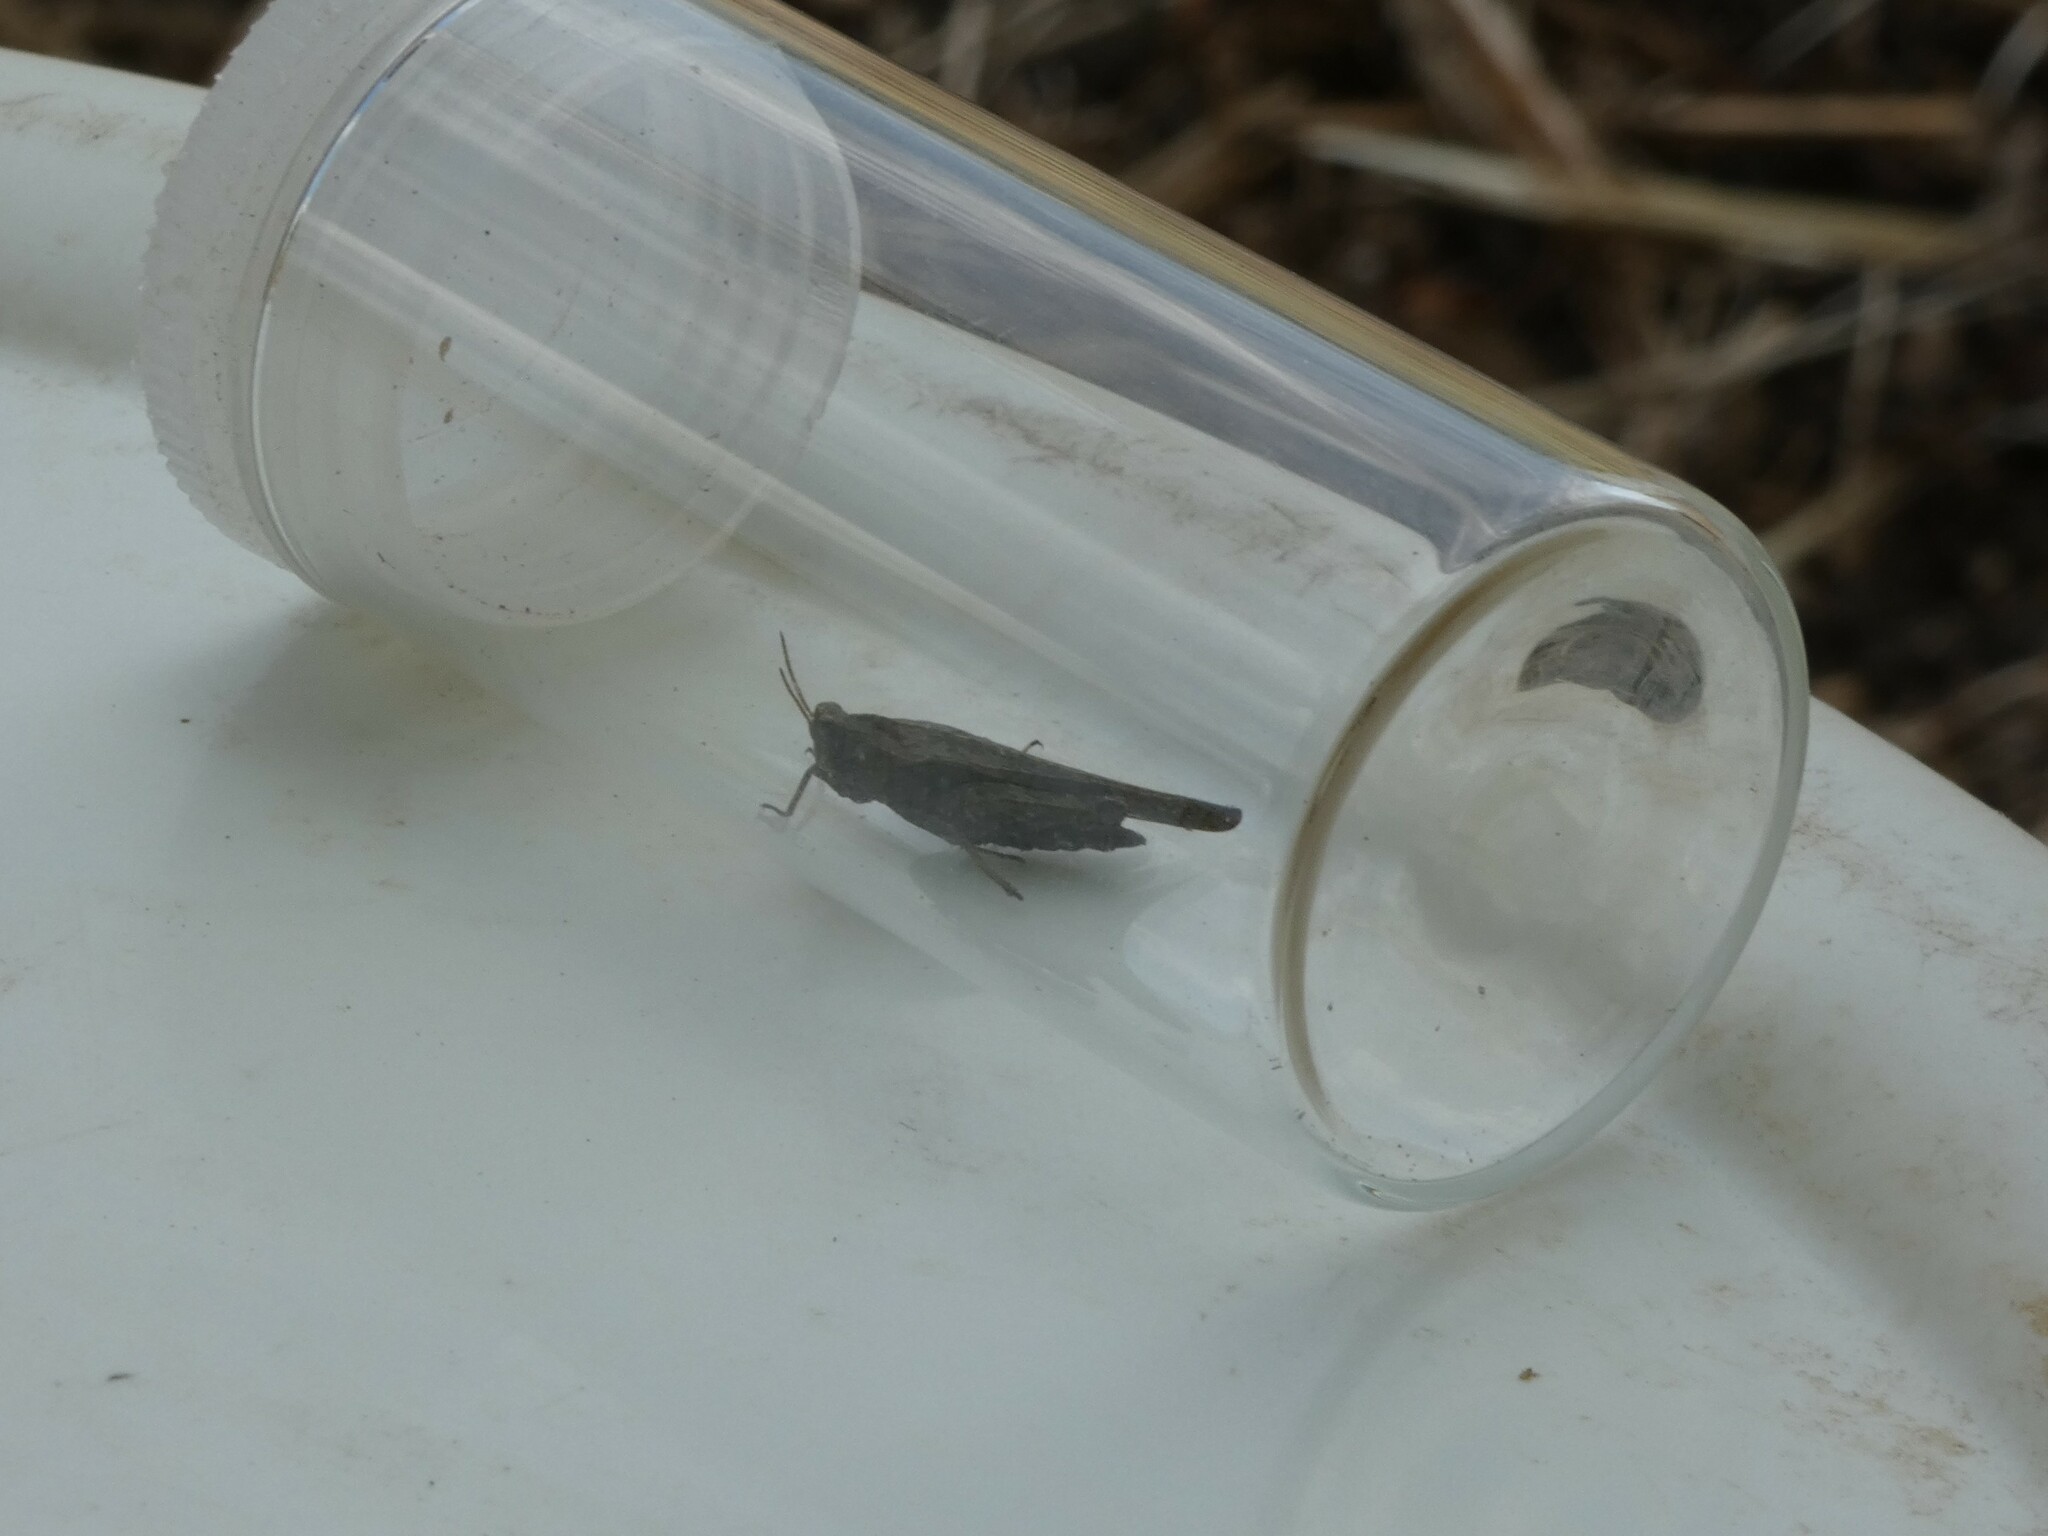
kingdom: Animalia
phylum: Arthropoda
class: Insecta
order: Orthoptera
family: Tetrigidae
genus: Tetrix
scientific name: Tetrix subulata
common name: Slender ground-hopper
